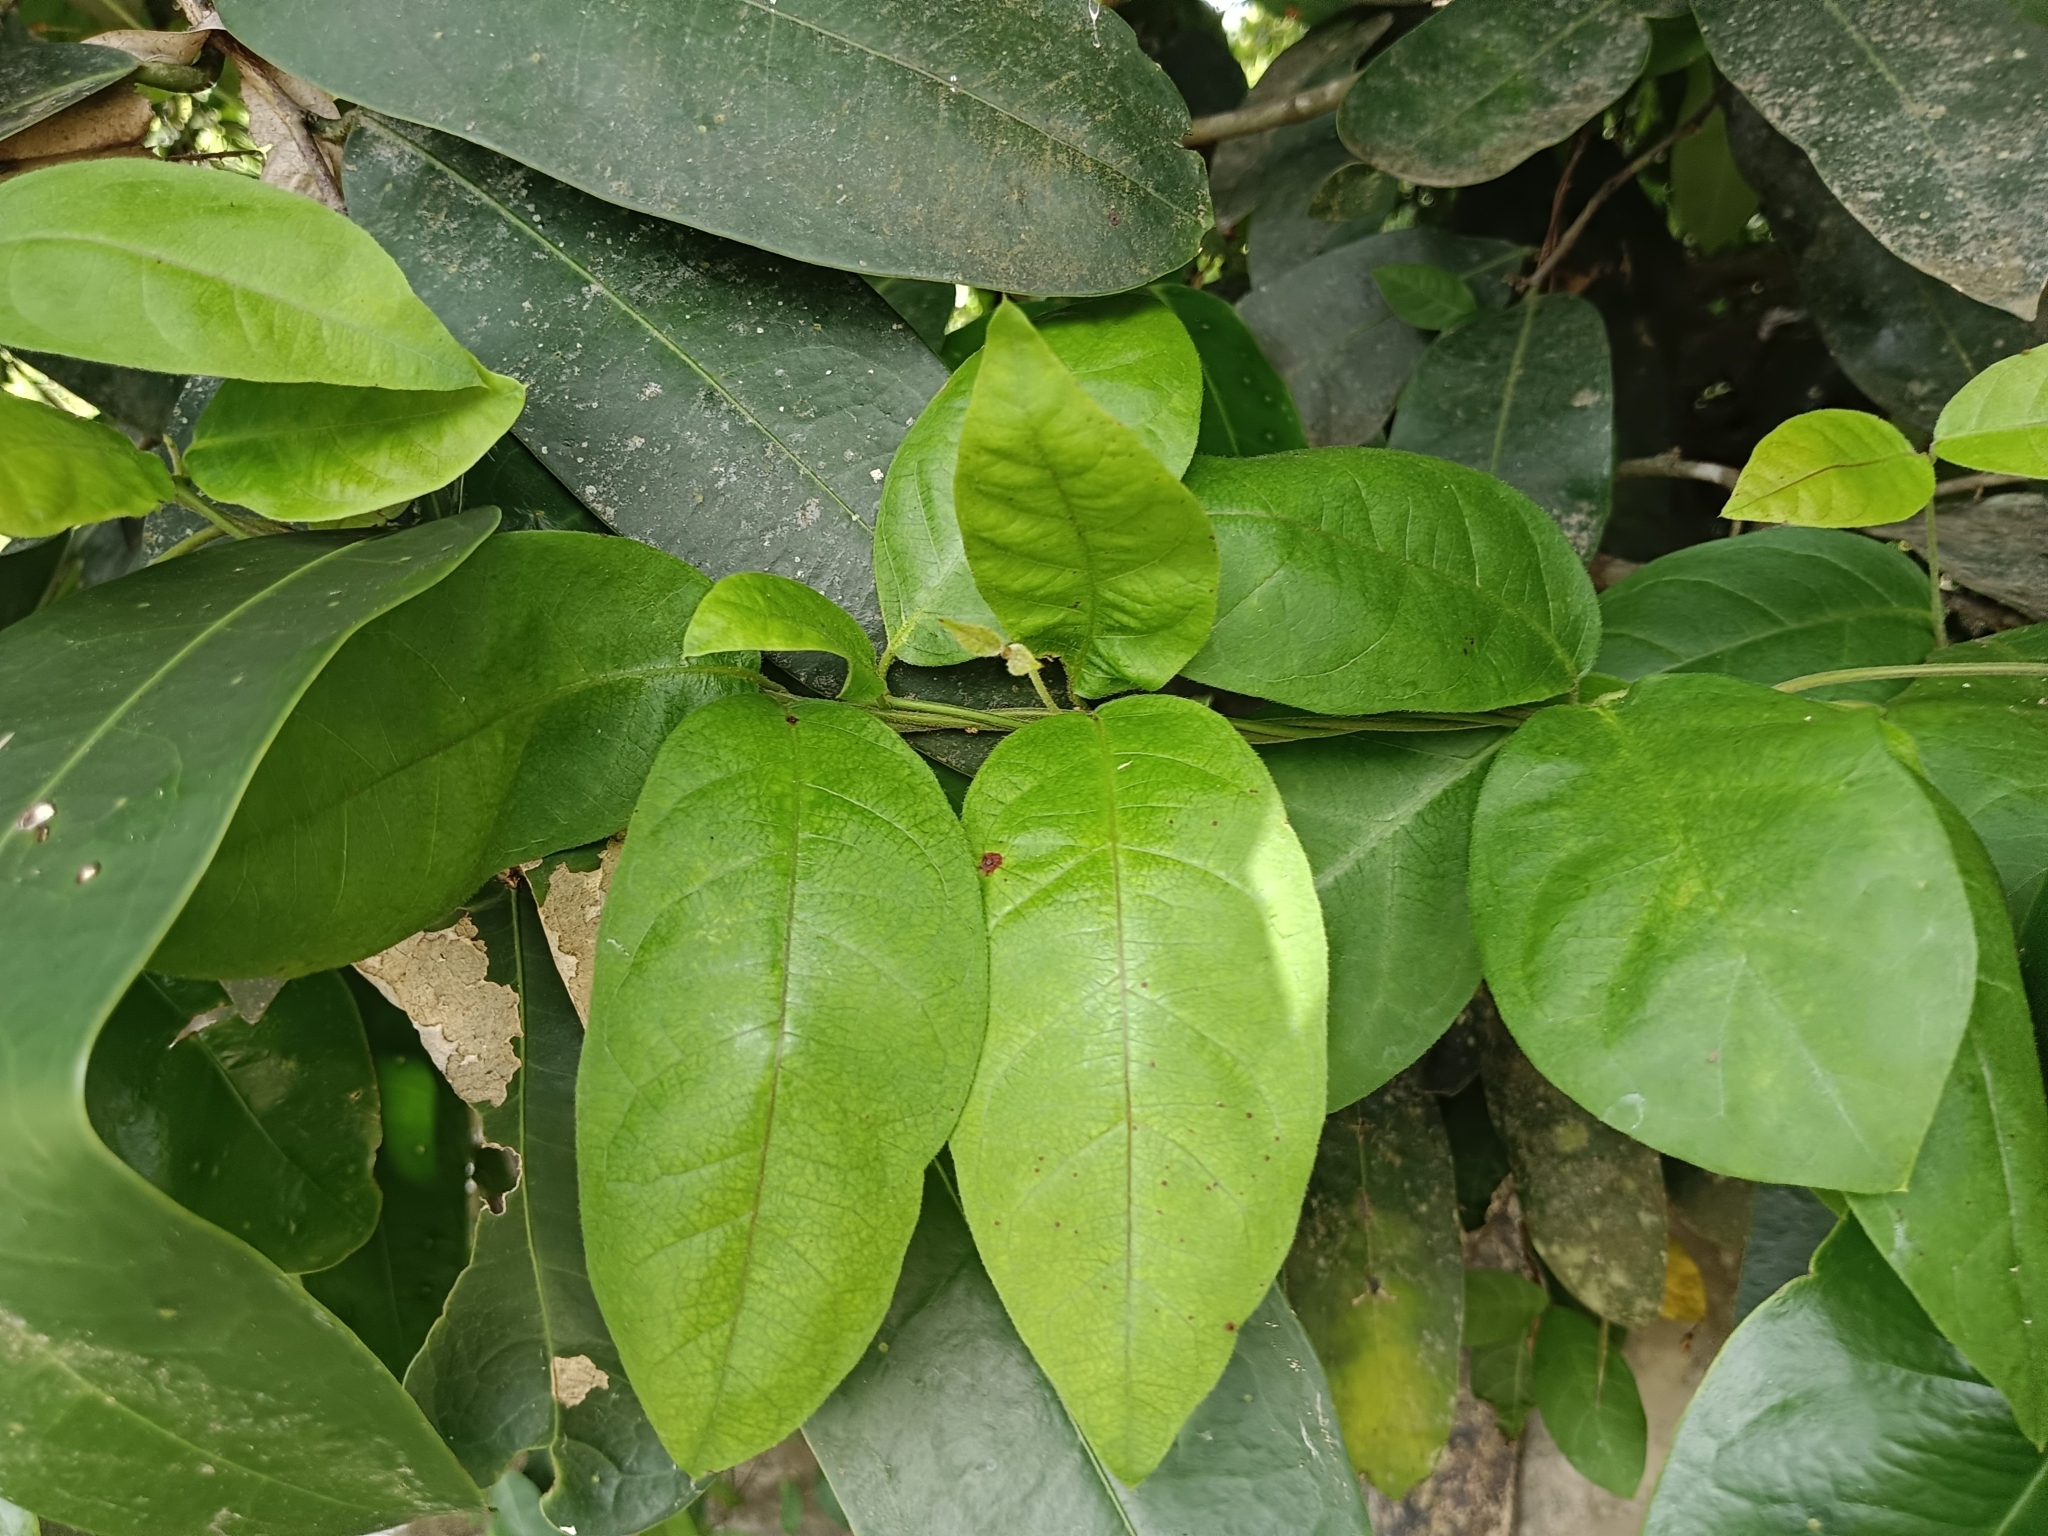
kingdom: Plantae
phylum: Tracheophyta
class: Magnoliopsida
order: Gentianales
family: Apocynaceae
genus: Ichnocarpus
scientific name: Ichnocarpus frutescens
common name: Ichnocarpus
